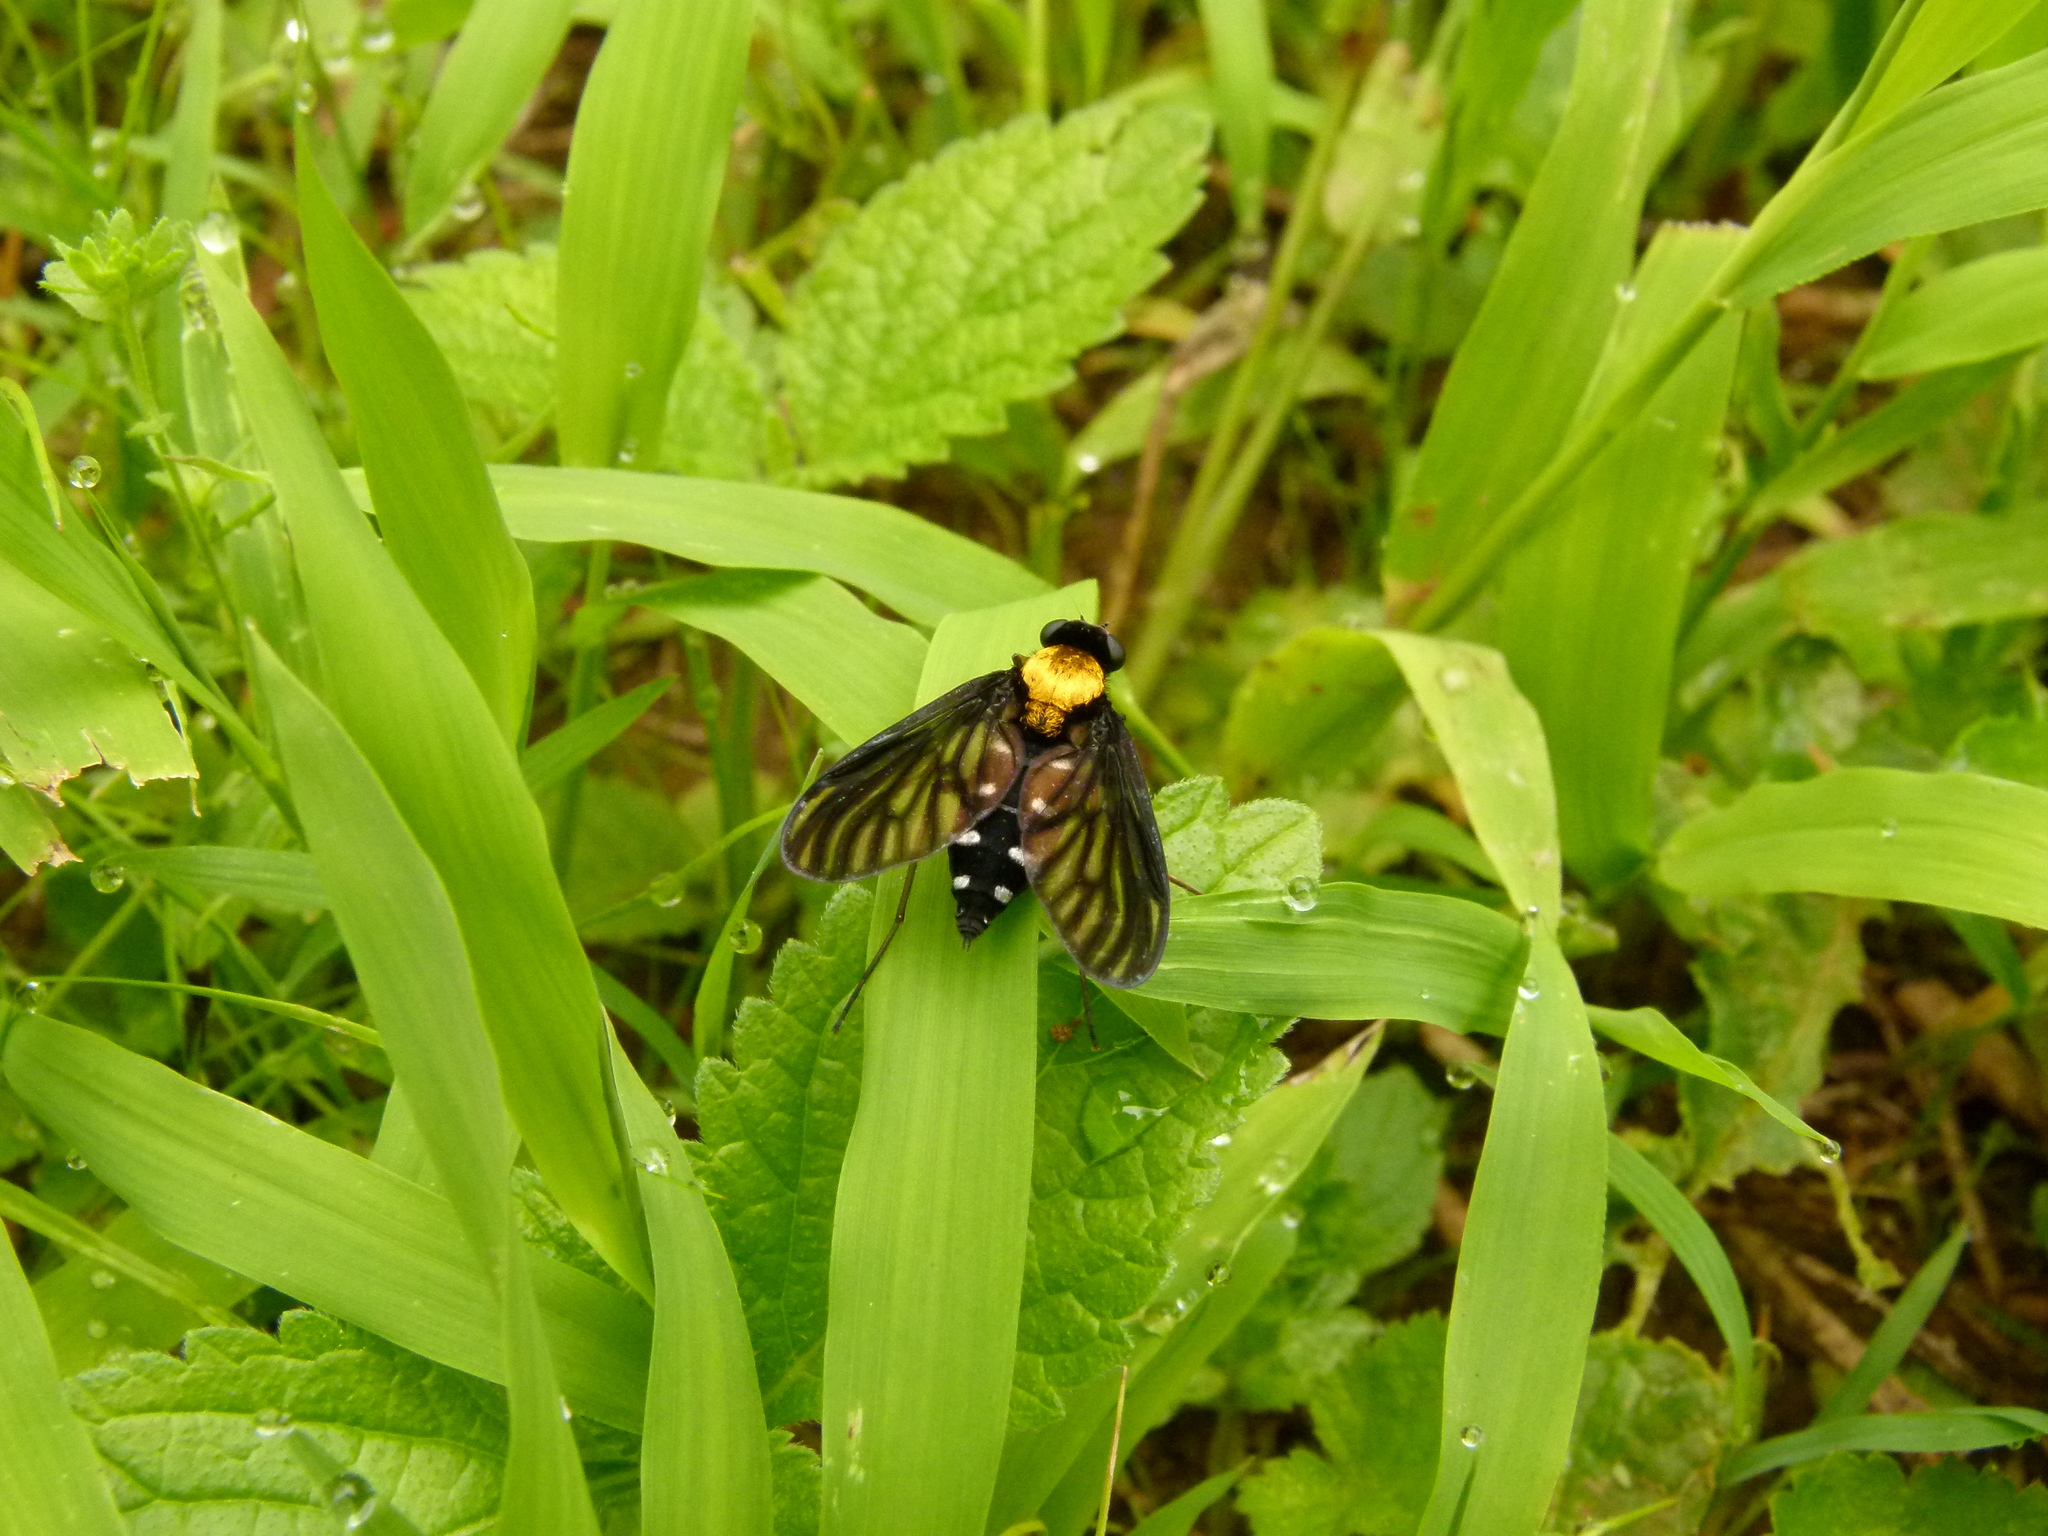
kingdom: Animalia
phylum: Arthropoda
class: Insecta
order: Diptera
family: Rhagionidae
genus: Chrysopilus
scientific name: Chrysopilus thoracicus
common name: Golden-backed snipe fly
